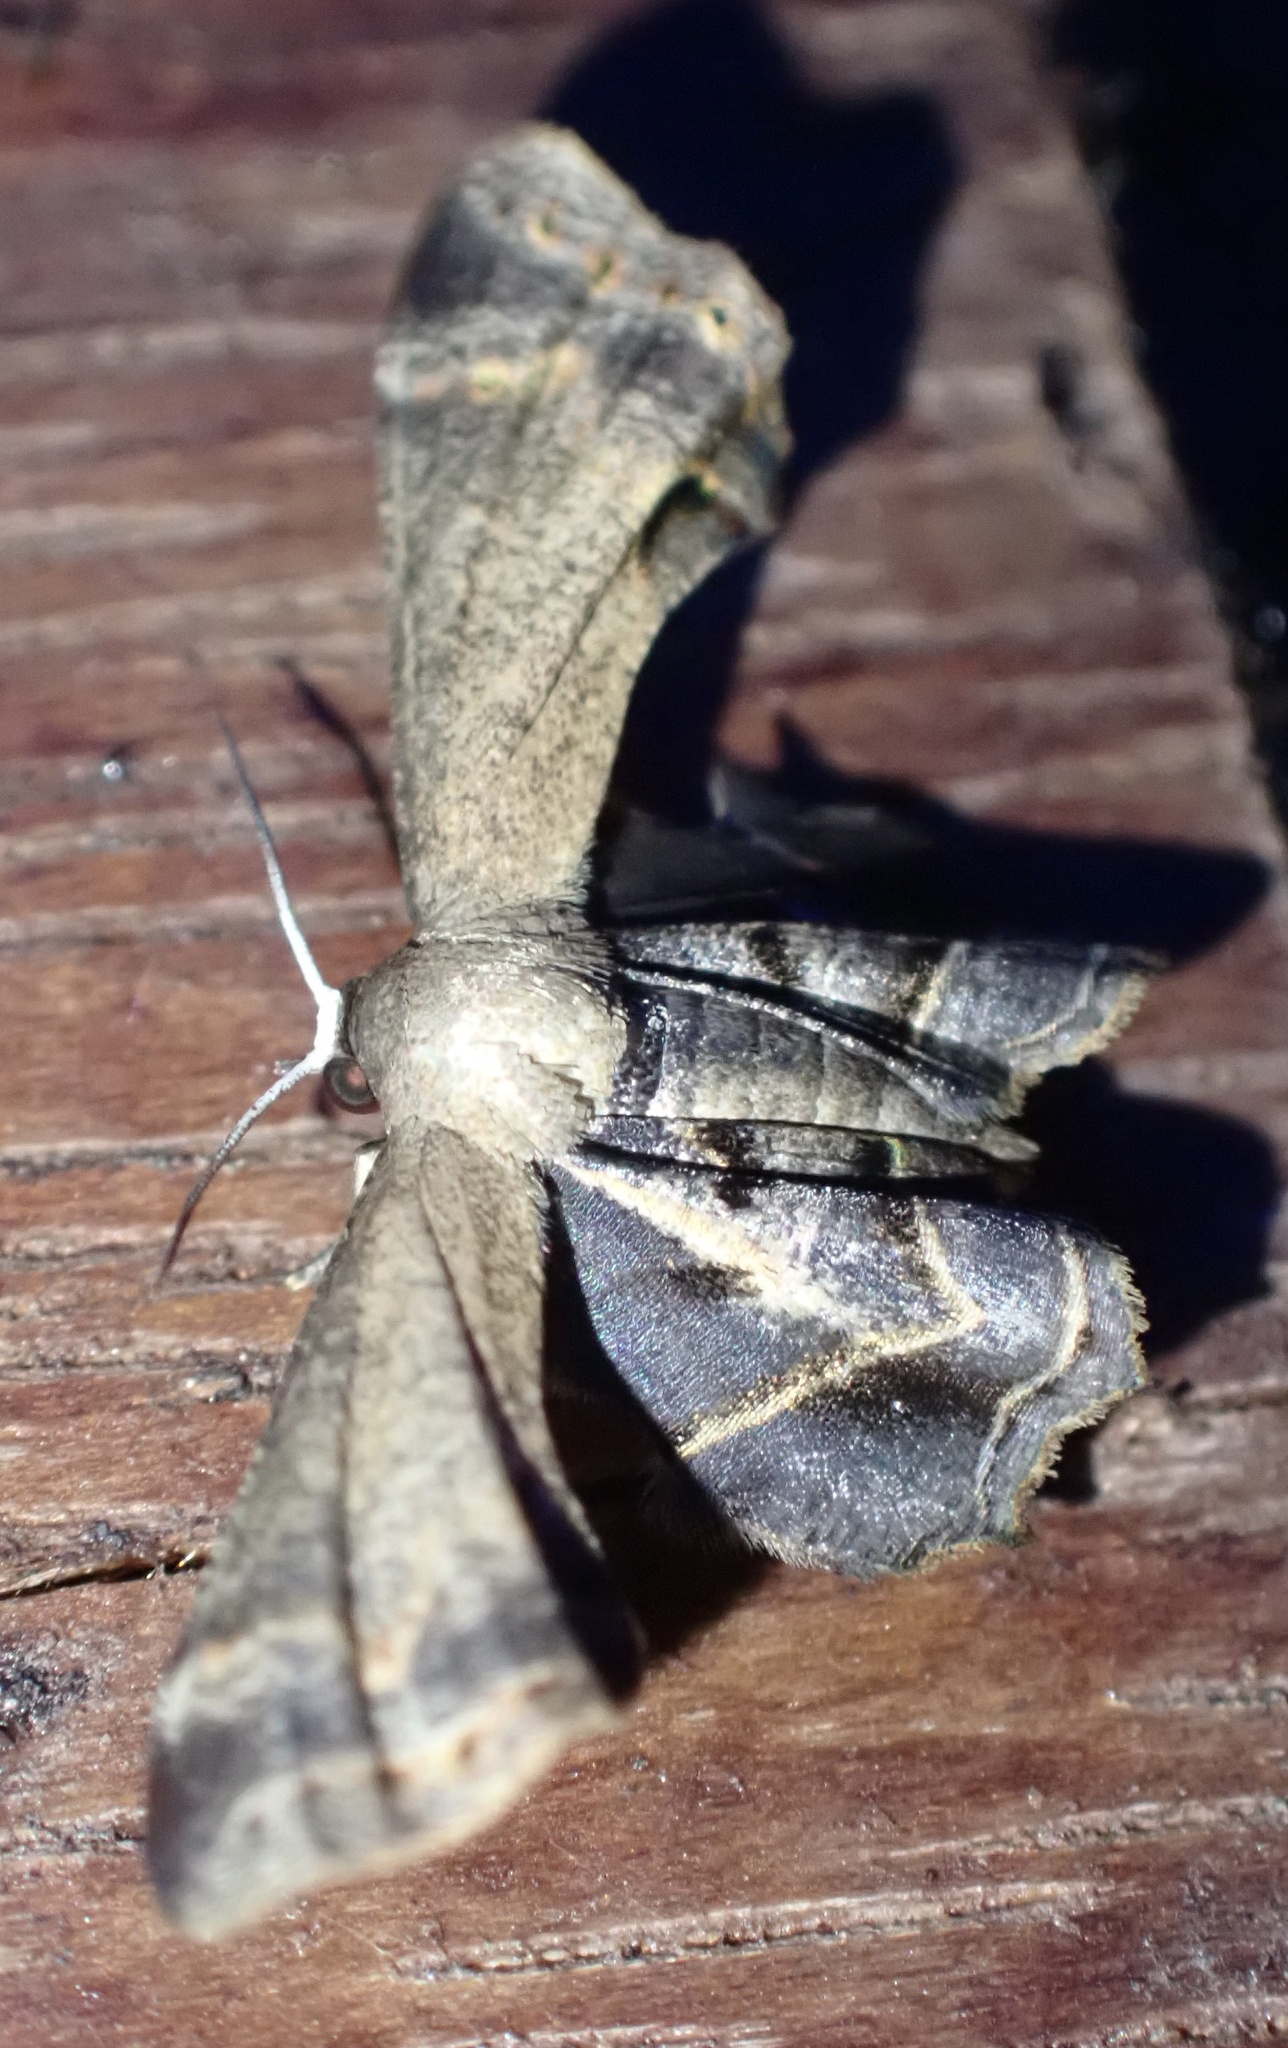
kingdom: Animalia
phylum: Arthropoda
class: Insecta
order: Lepidoptera
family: Uraniidae
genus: Phazaca
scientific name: Phazaca mutans
